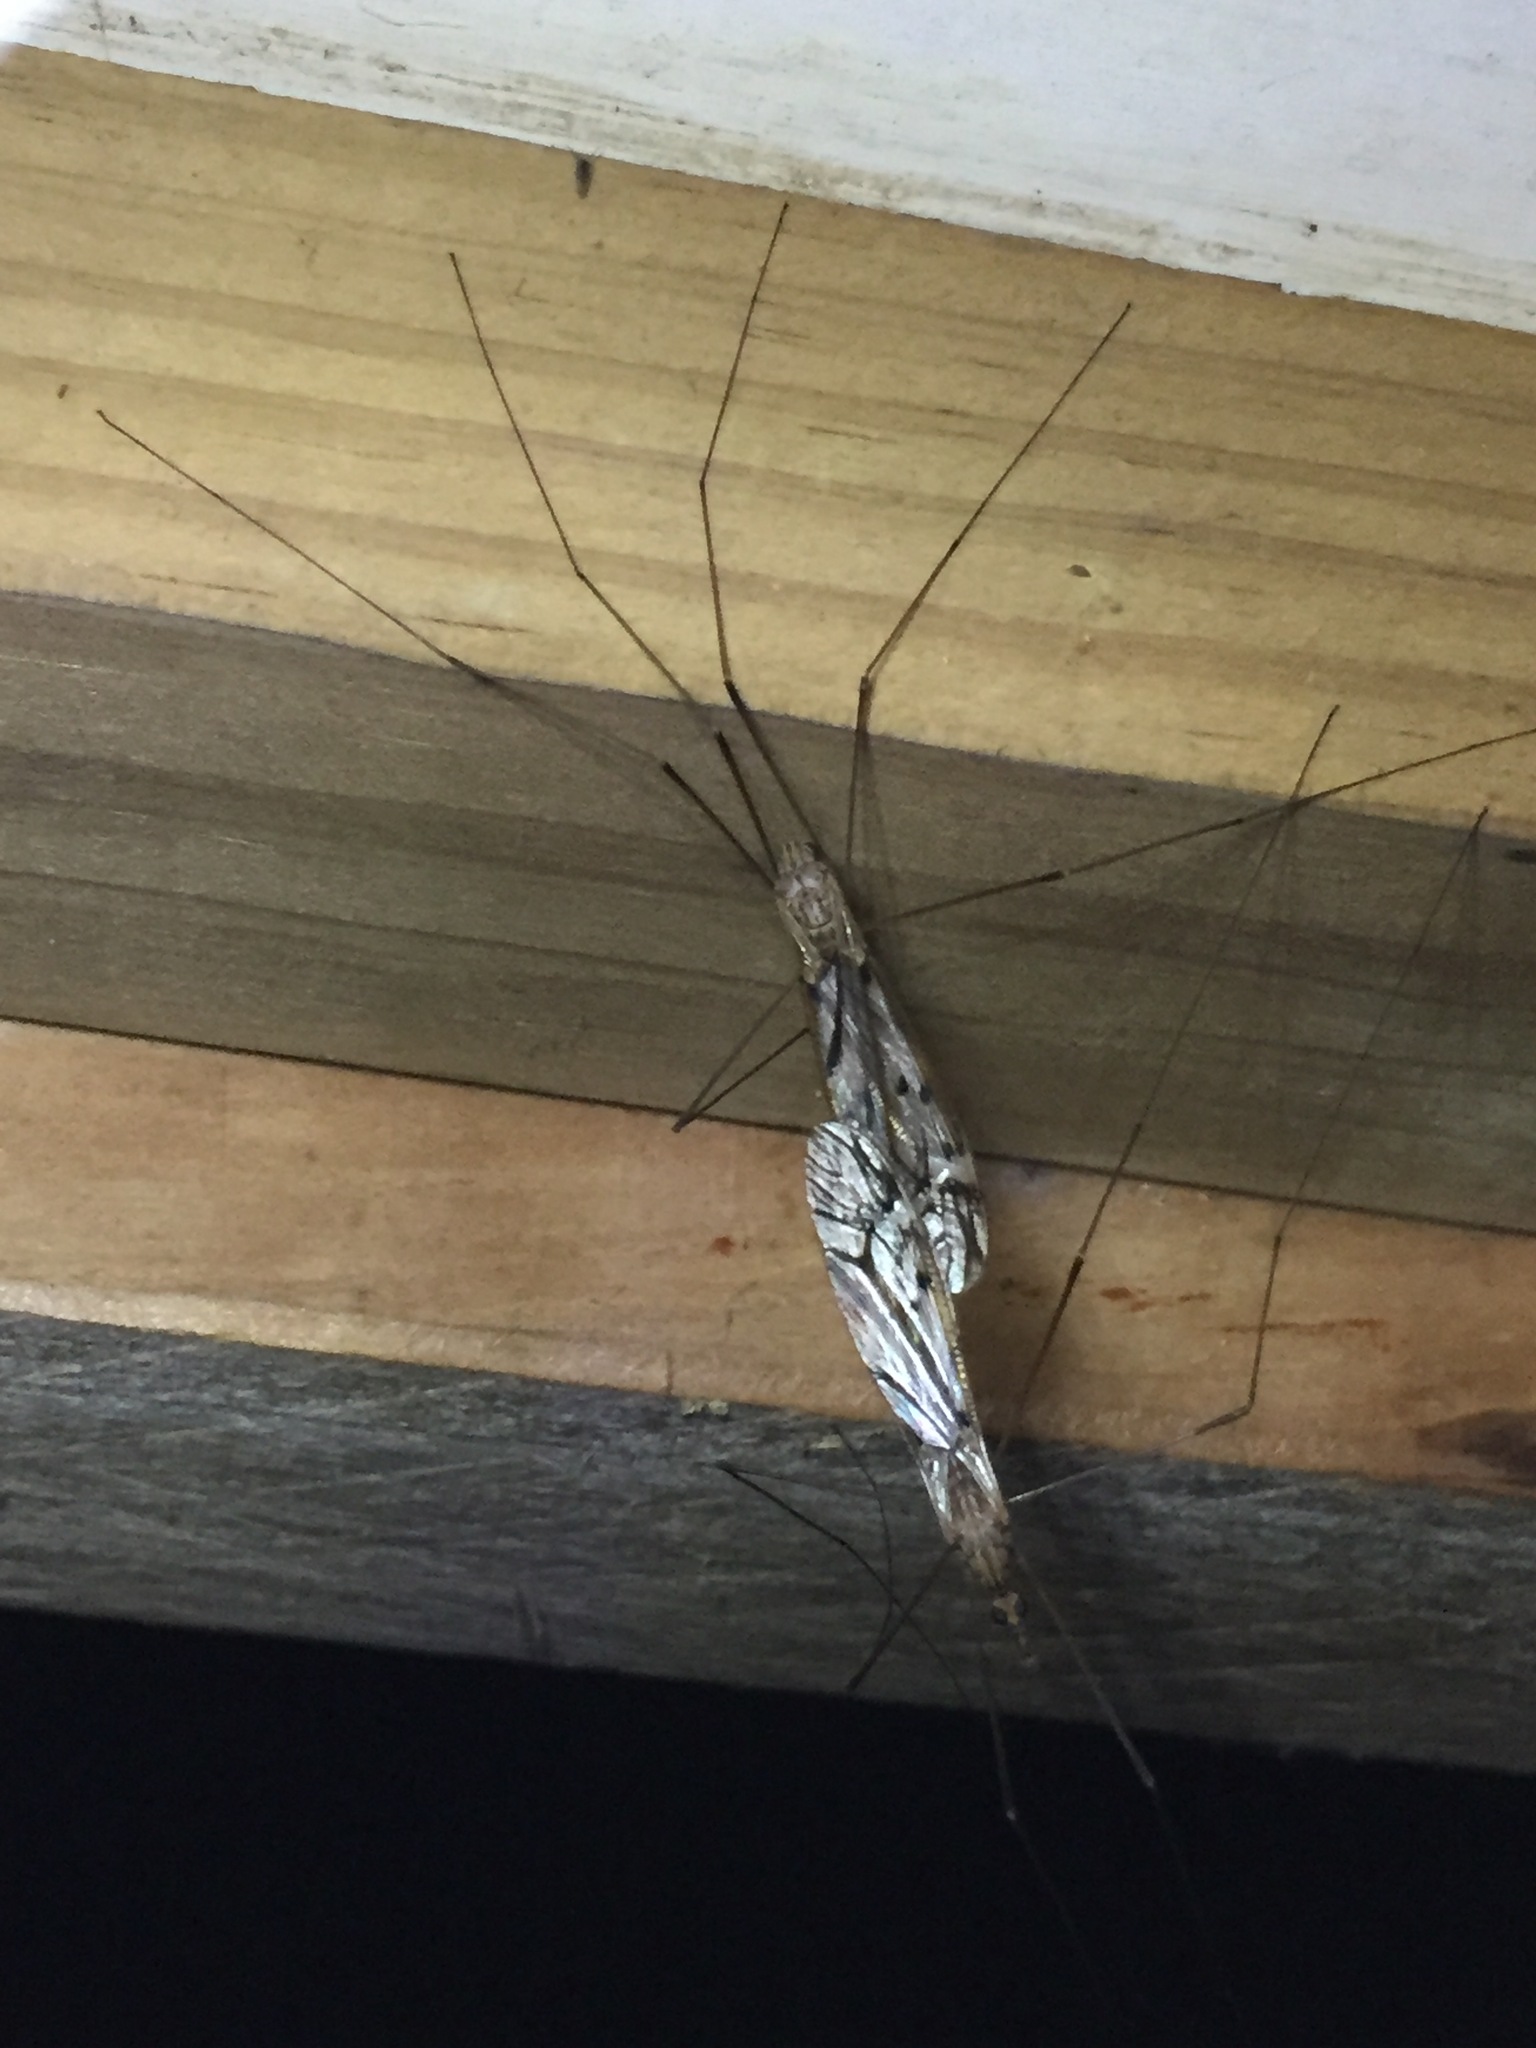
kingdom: Animalia
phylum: Arthropoda
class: Insecta
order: Diptera
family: Tipulidae
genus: Zelandotipula
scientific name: Zelandotipula novarae
